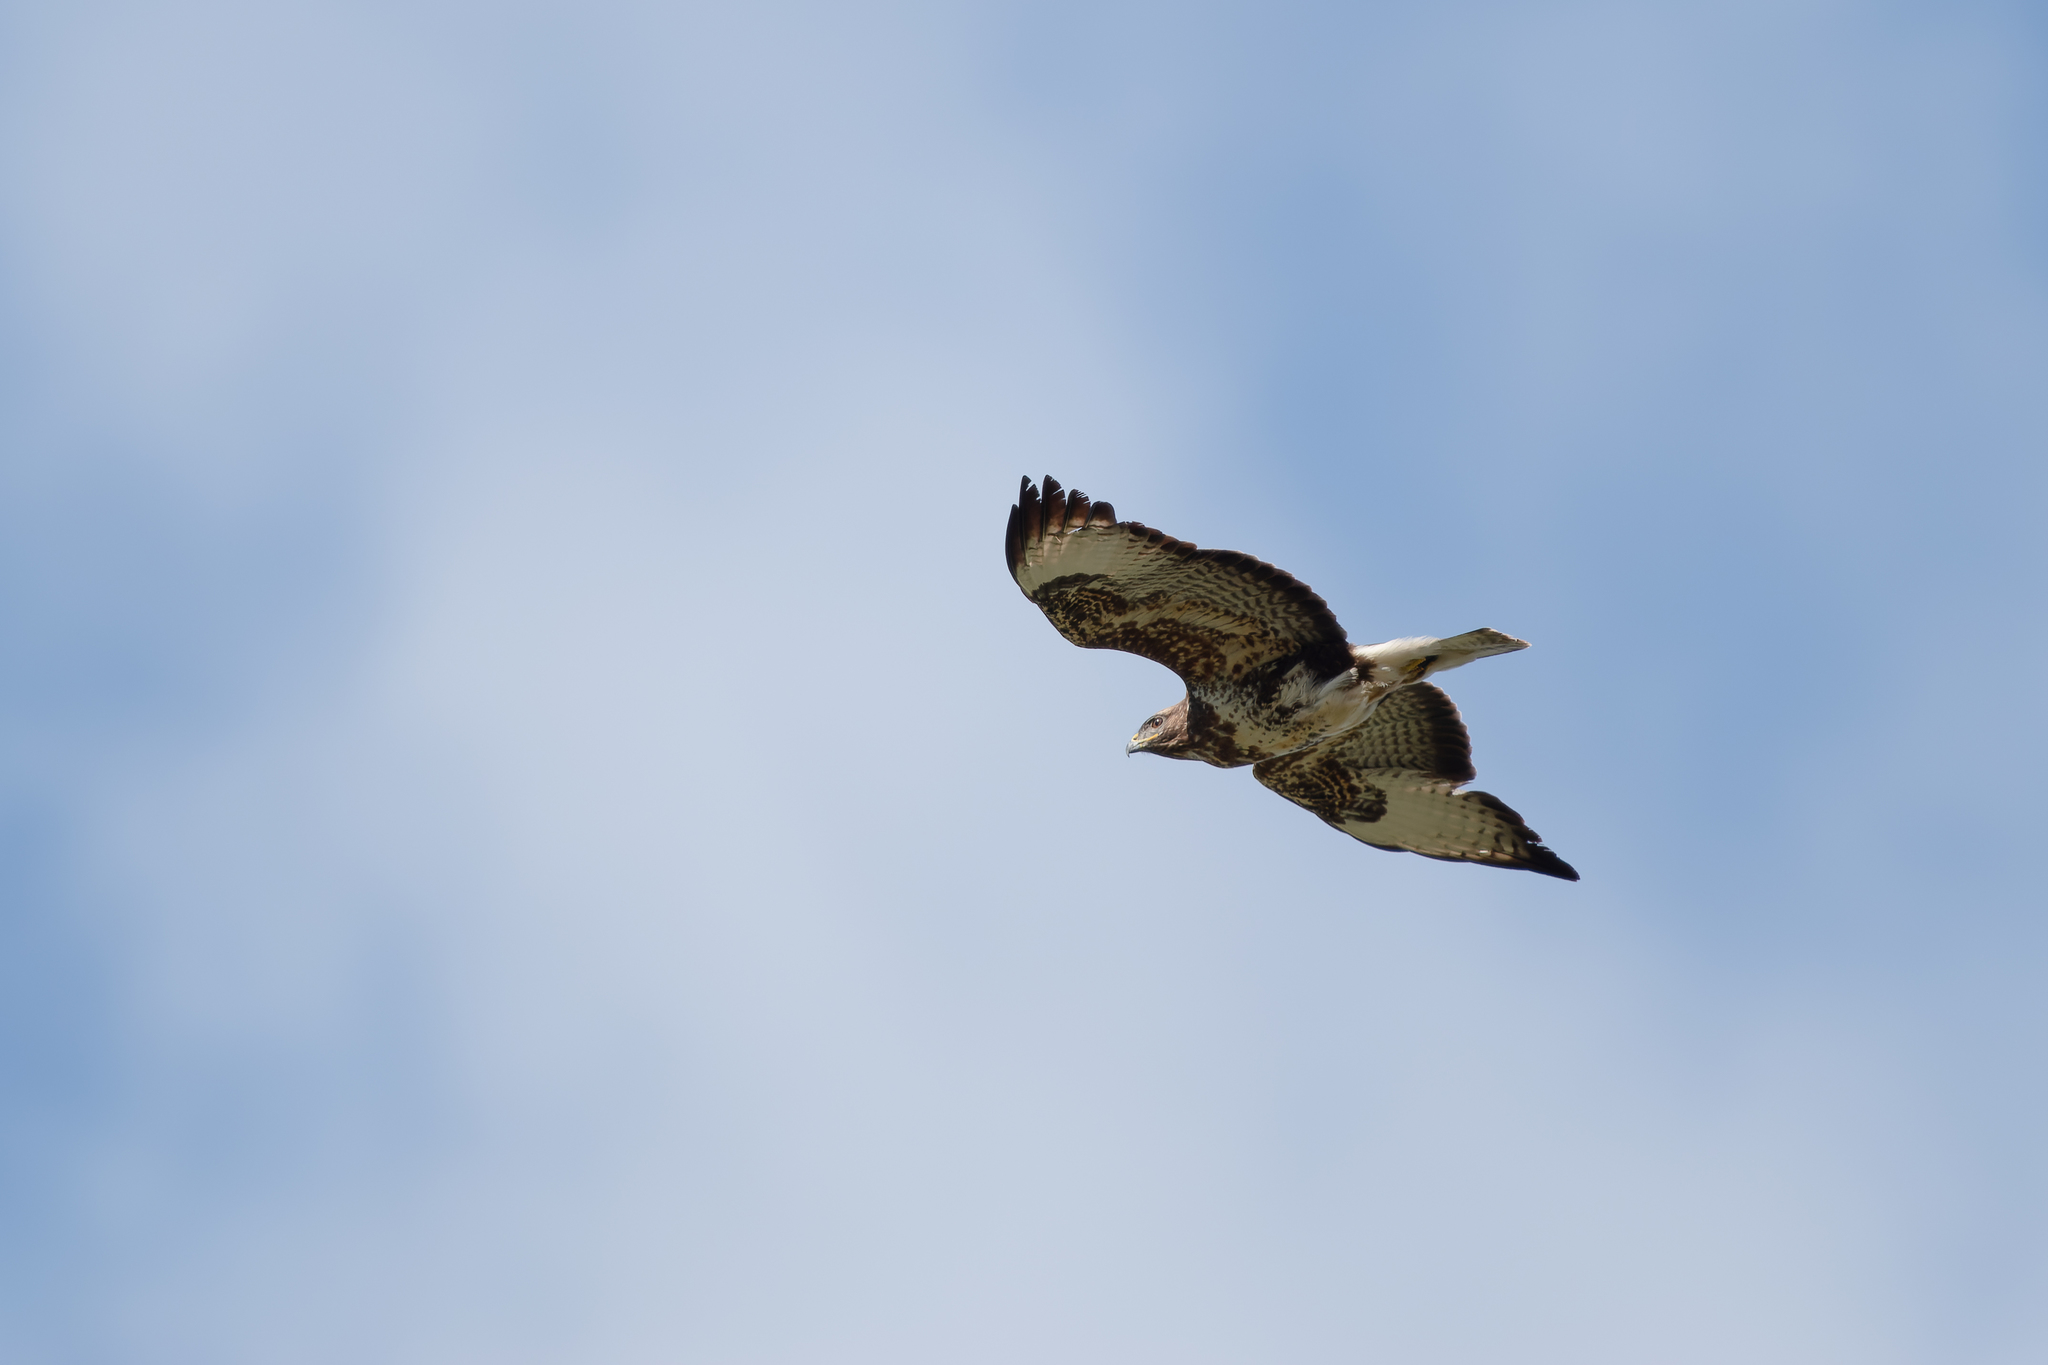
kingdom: Animalia
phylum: Chordata
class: Aves
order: Accipitriformes
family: Accipitridae
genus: Buteo
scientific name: Buteo buteo
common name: Common buzzard
